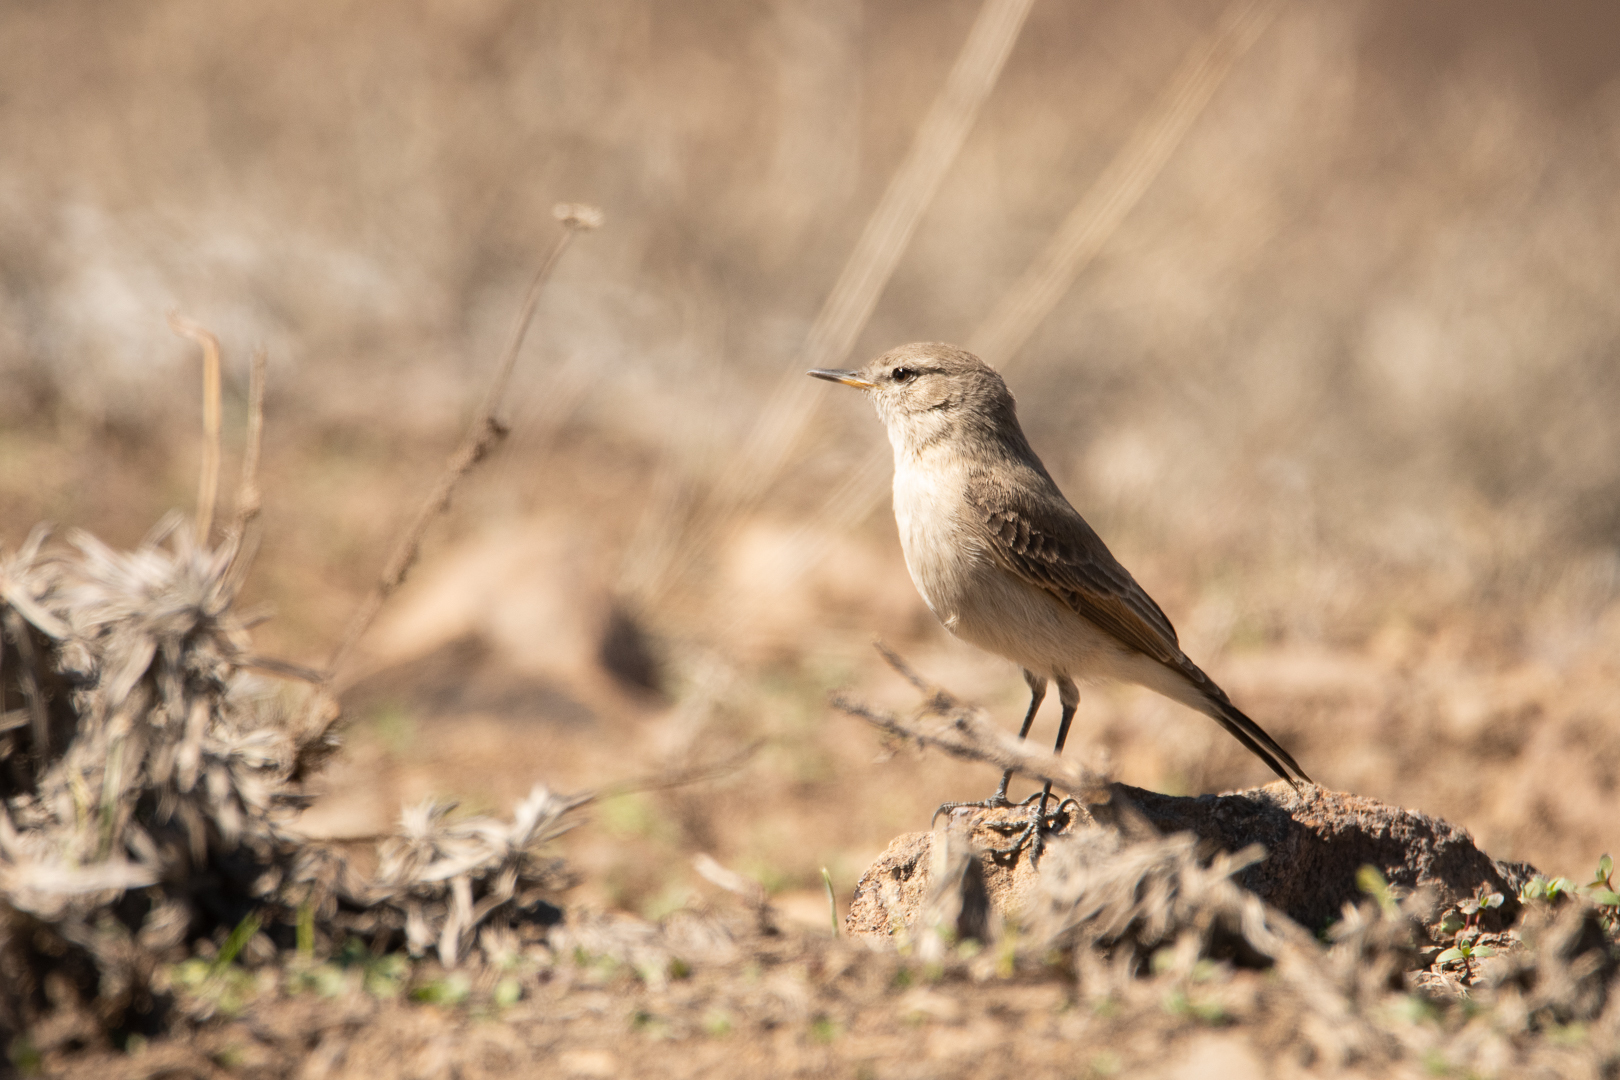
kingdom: Animalia
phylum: Chordata
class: Aves
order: Passeriformes
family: Tyrannidae
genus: Muscisaxicola
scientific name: Muscisaxicola maculirostris
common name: Spot-billed ground tyrant
